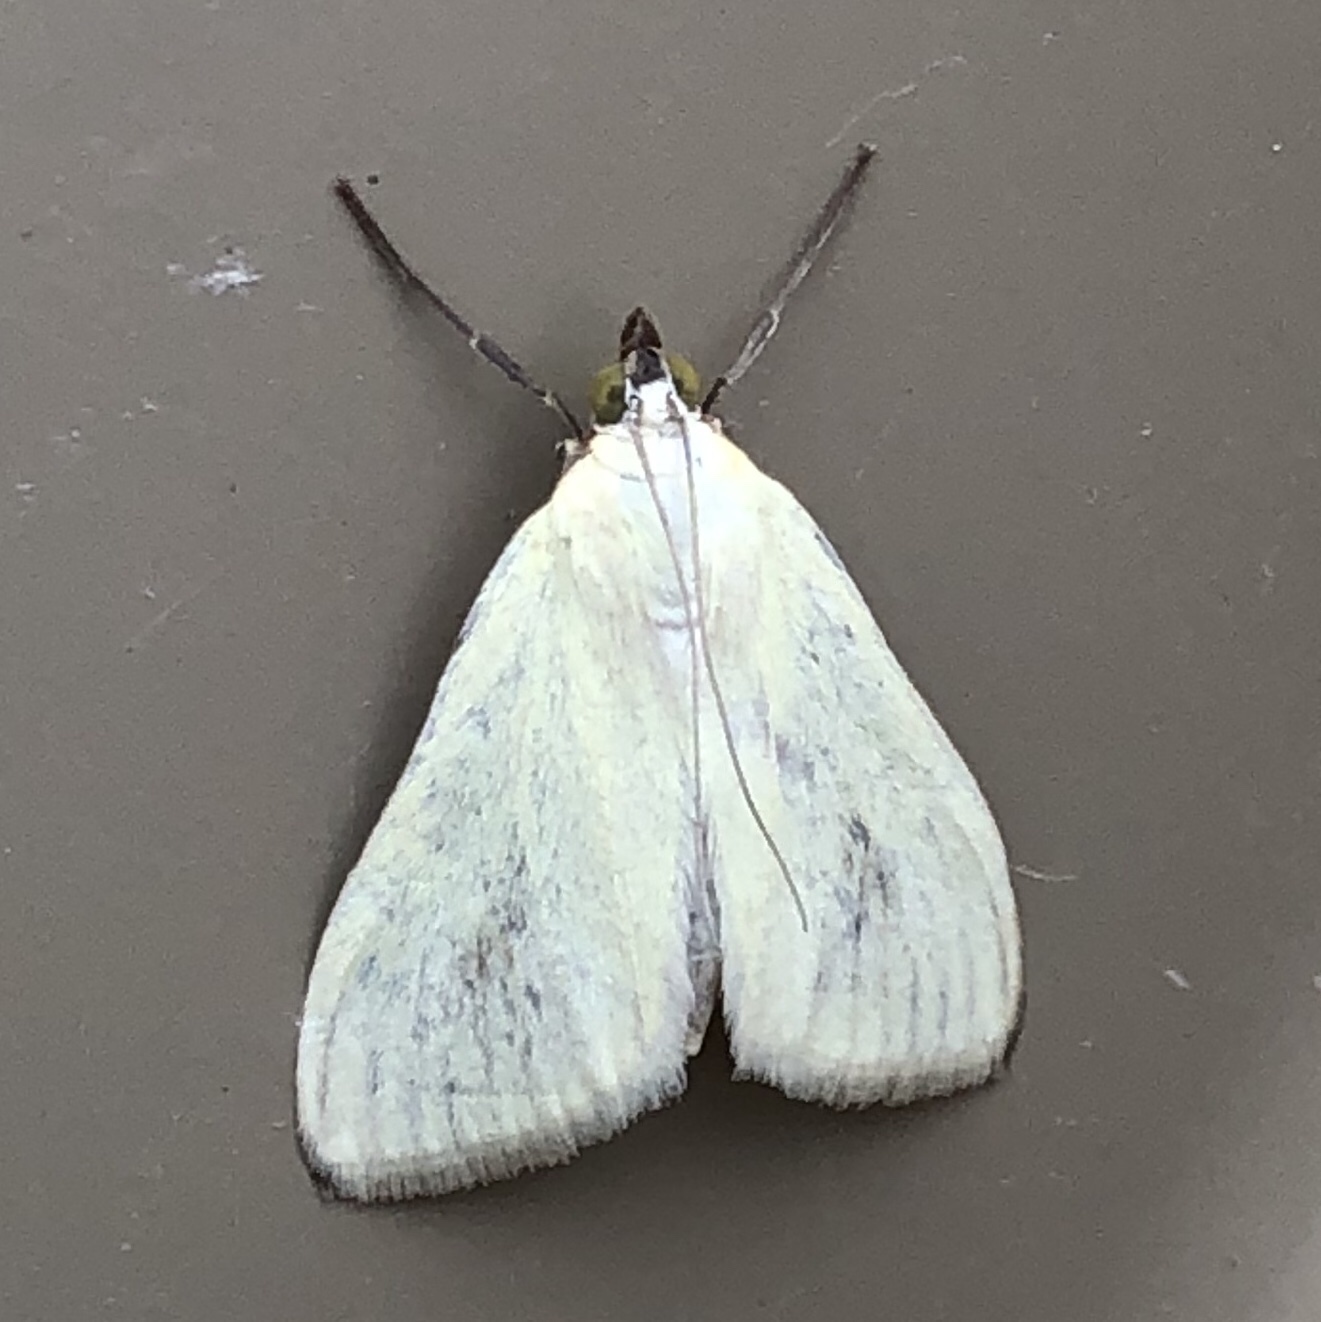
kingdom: Animalia
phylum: Arthropoda
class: Insecta
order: Lepidoptera
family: Crambidae
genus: Sitochroa
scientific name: Sitochroa palealis
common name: Greenish-yellow sitochroa moth
